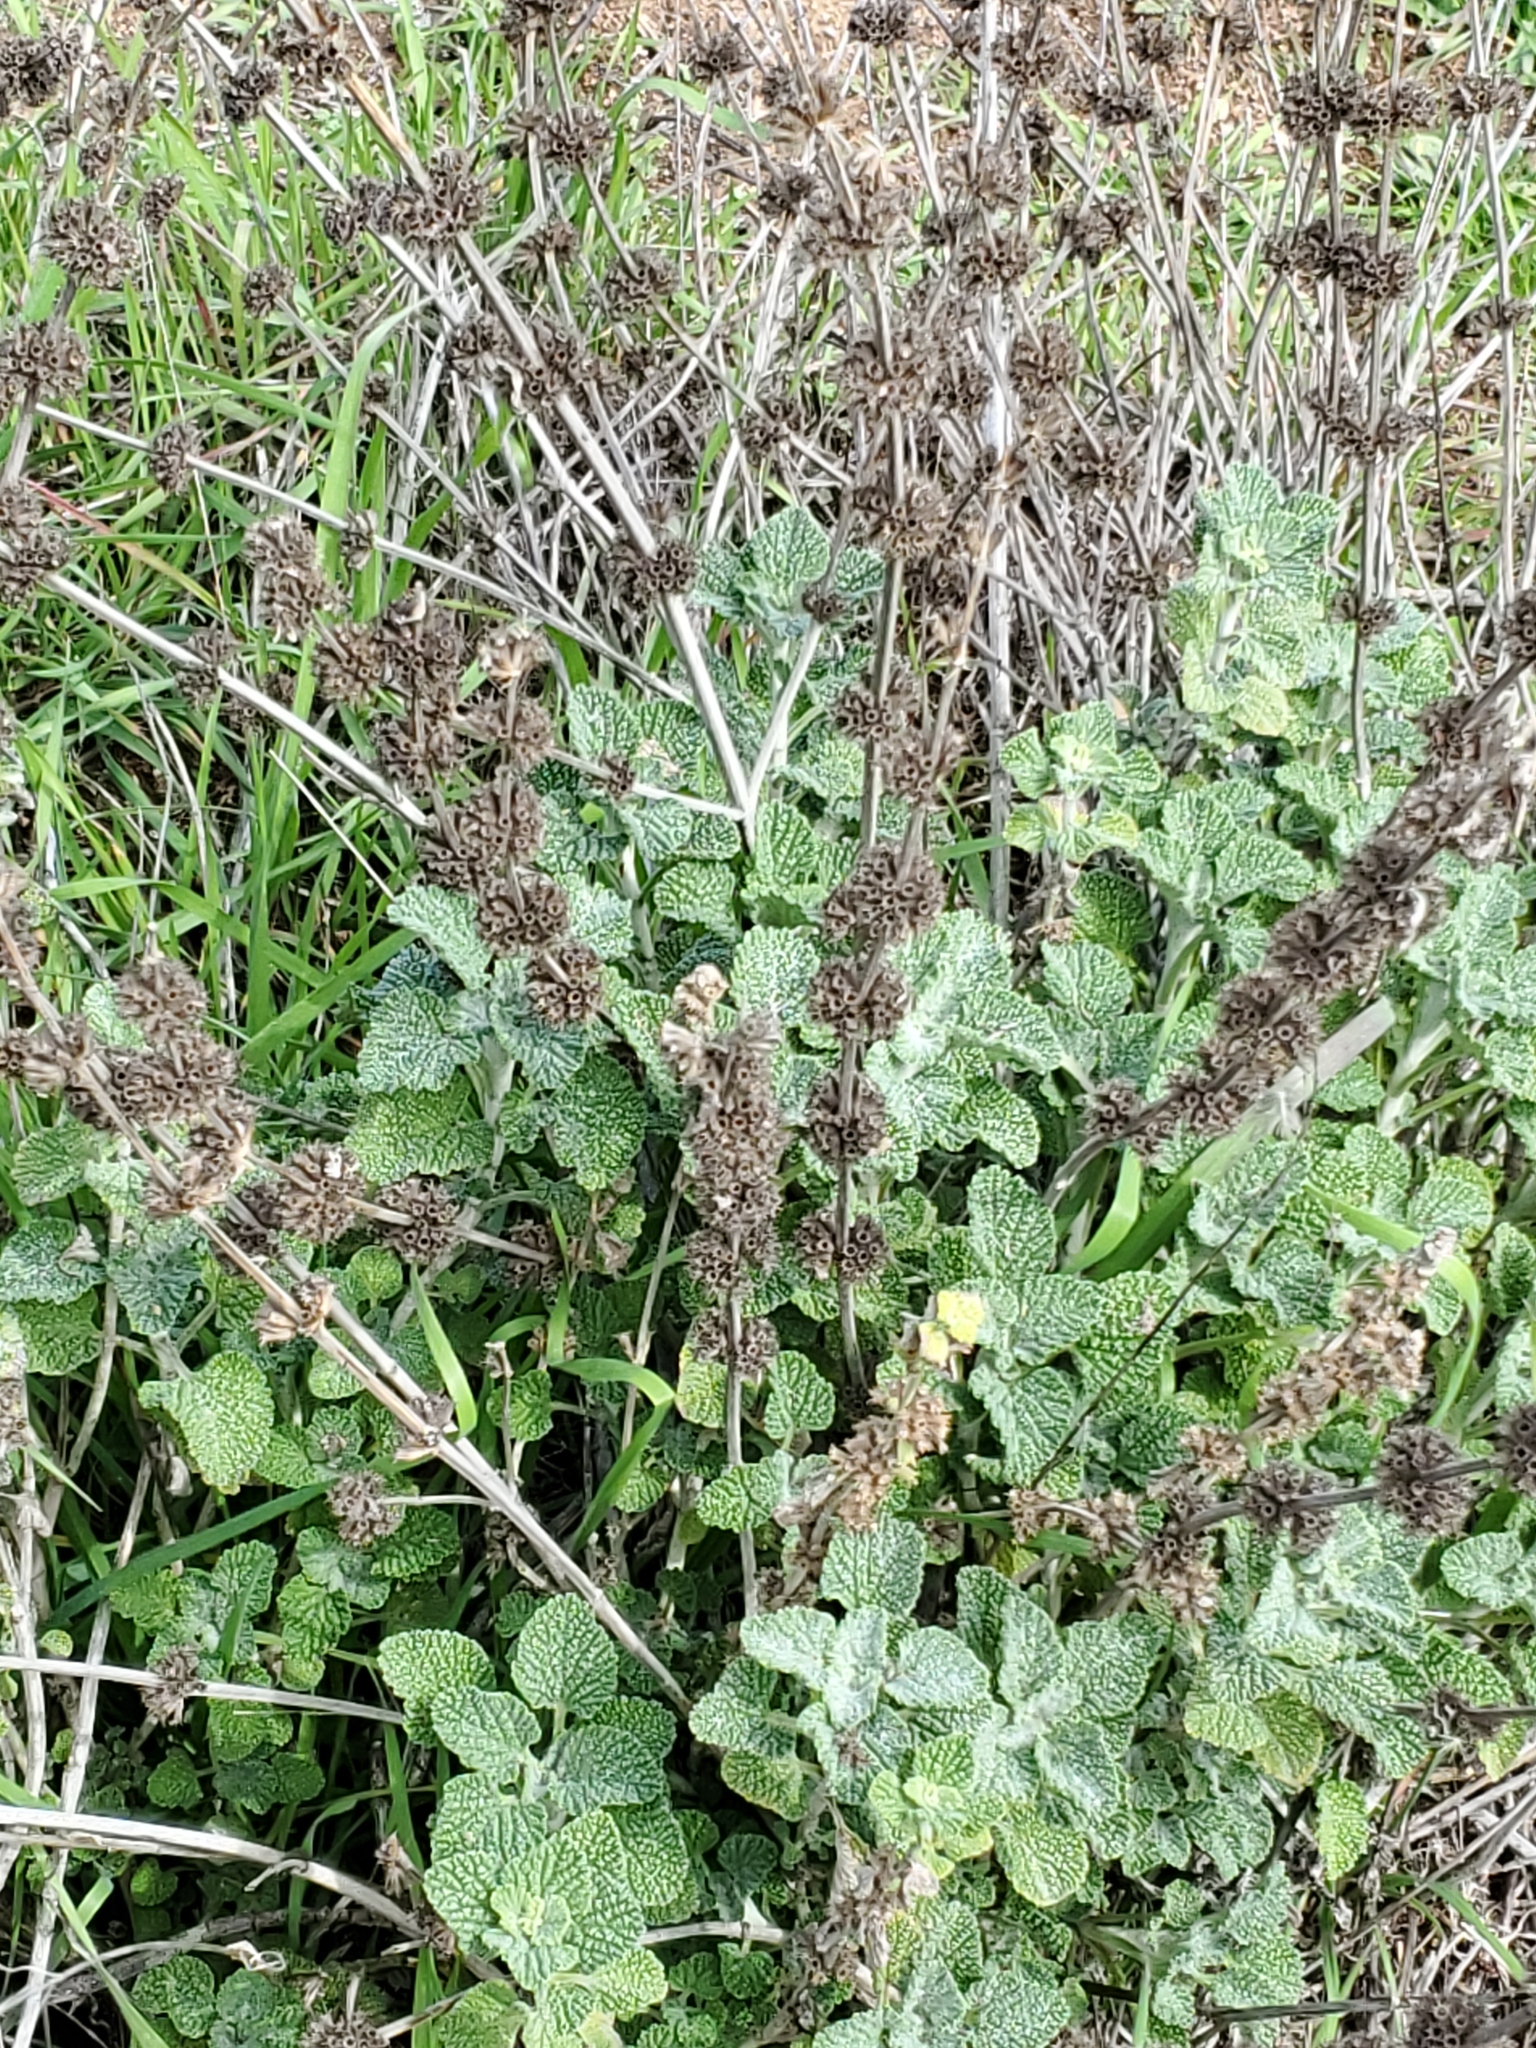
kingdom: Plantae
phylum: Tracheophyta
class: Magnoliopsida
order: Lamiales
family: Lamiaceae
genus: Marrubium
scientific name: Marrubium vulgare
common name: Horehound
